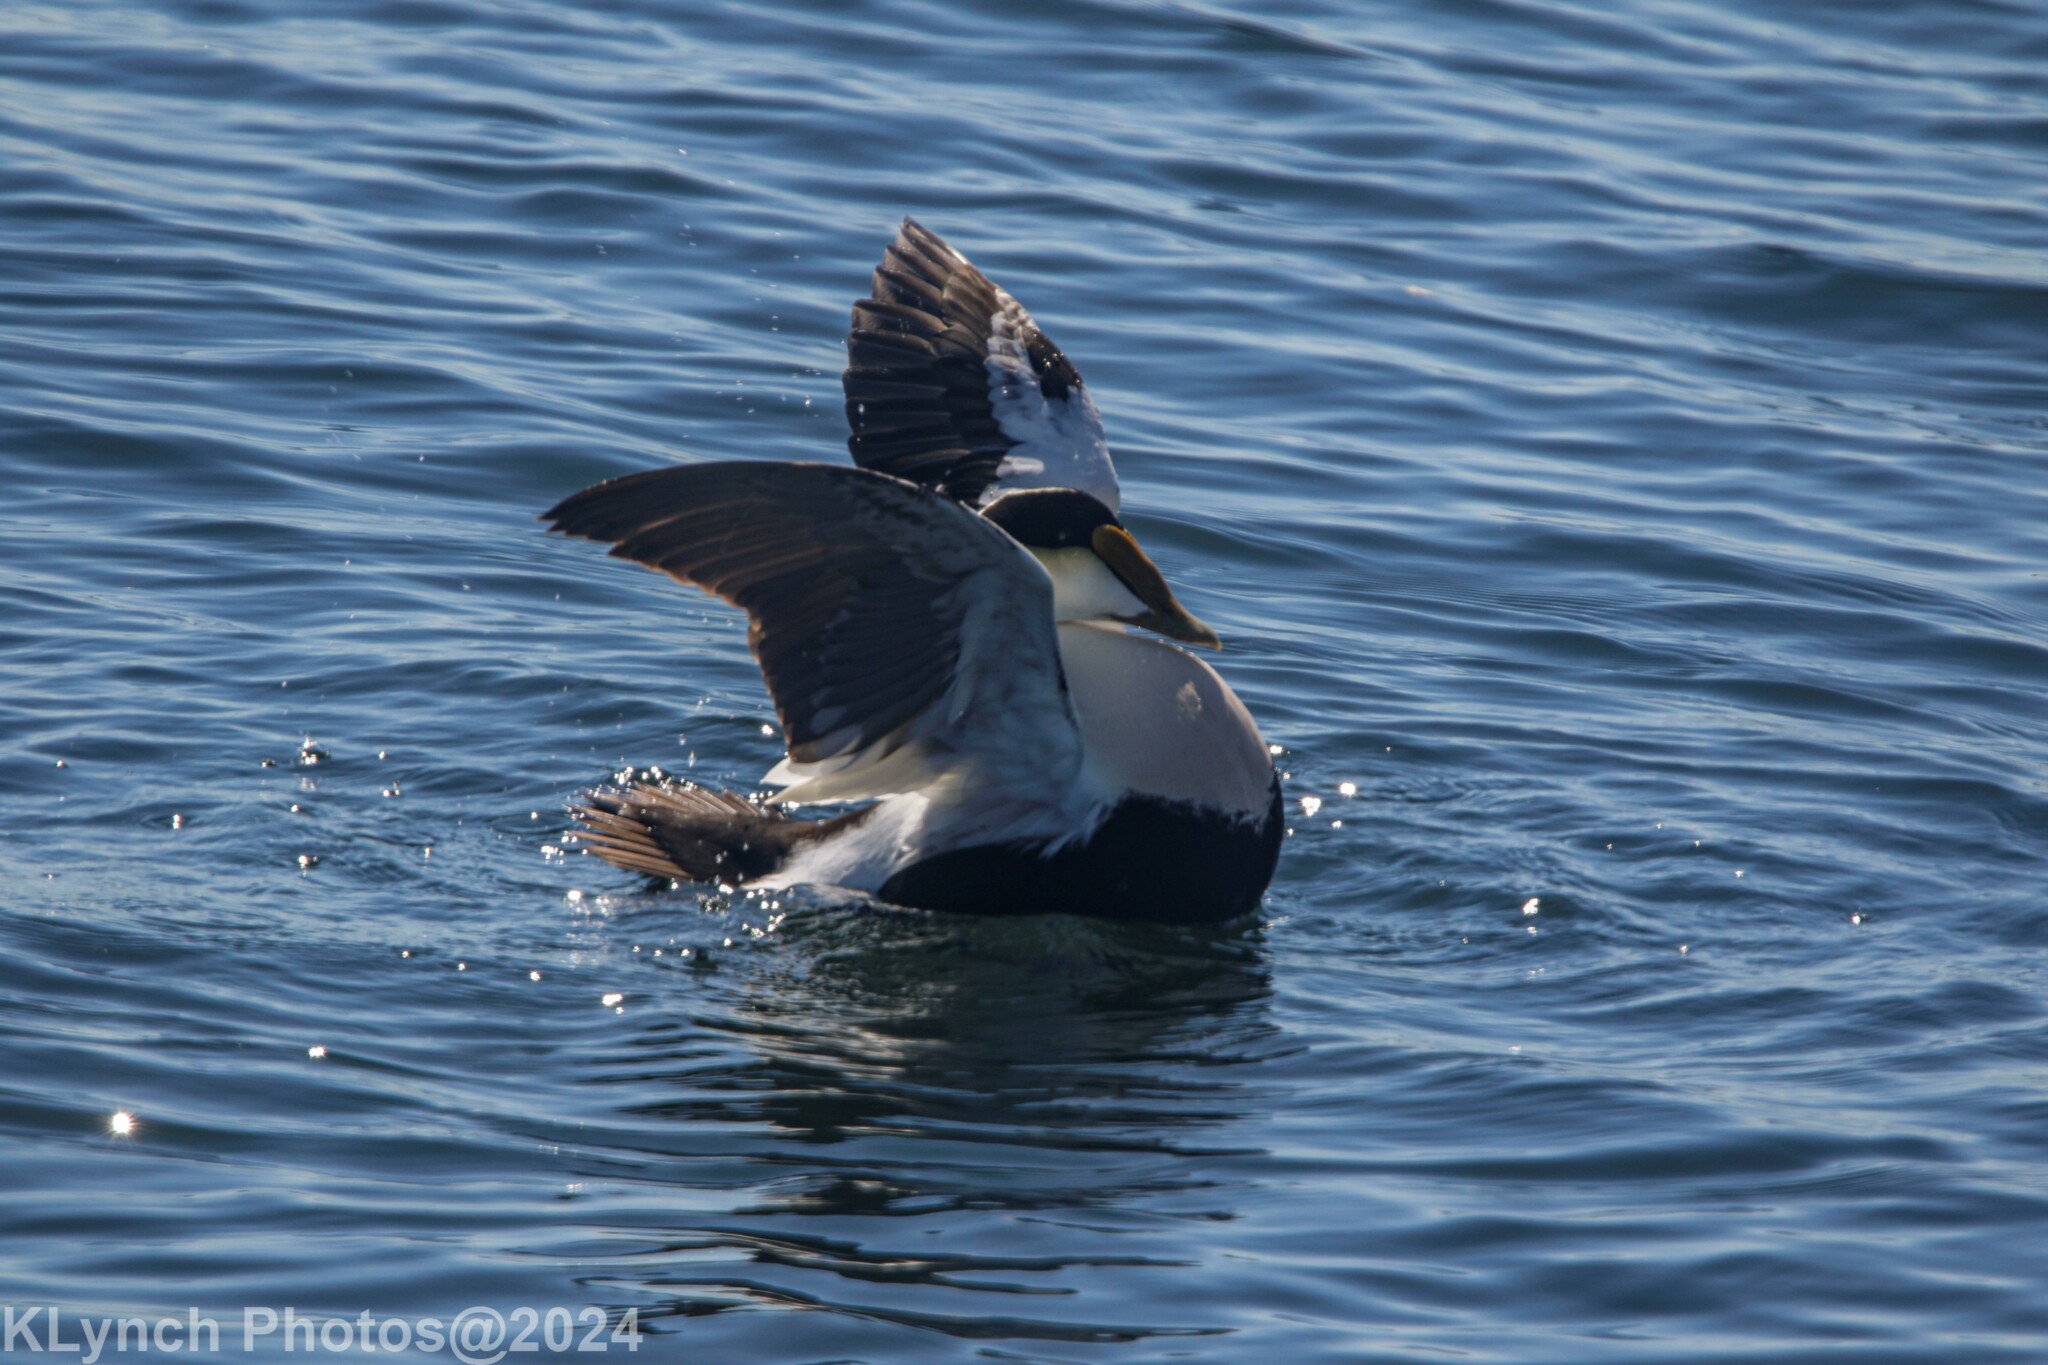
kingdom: Animalia
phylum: Chordata
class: Aves
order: Anseriformes
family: Anatidae
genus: Somateria
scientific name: Somateria mollissima
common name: Common eider
